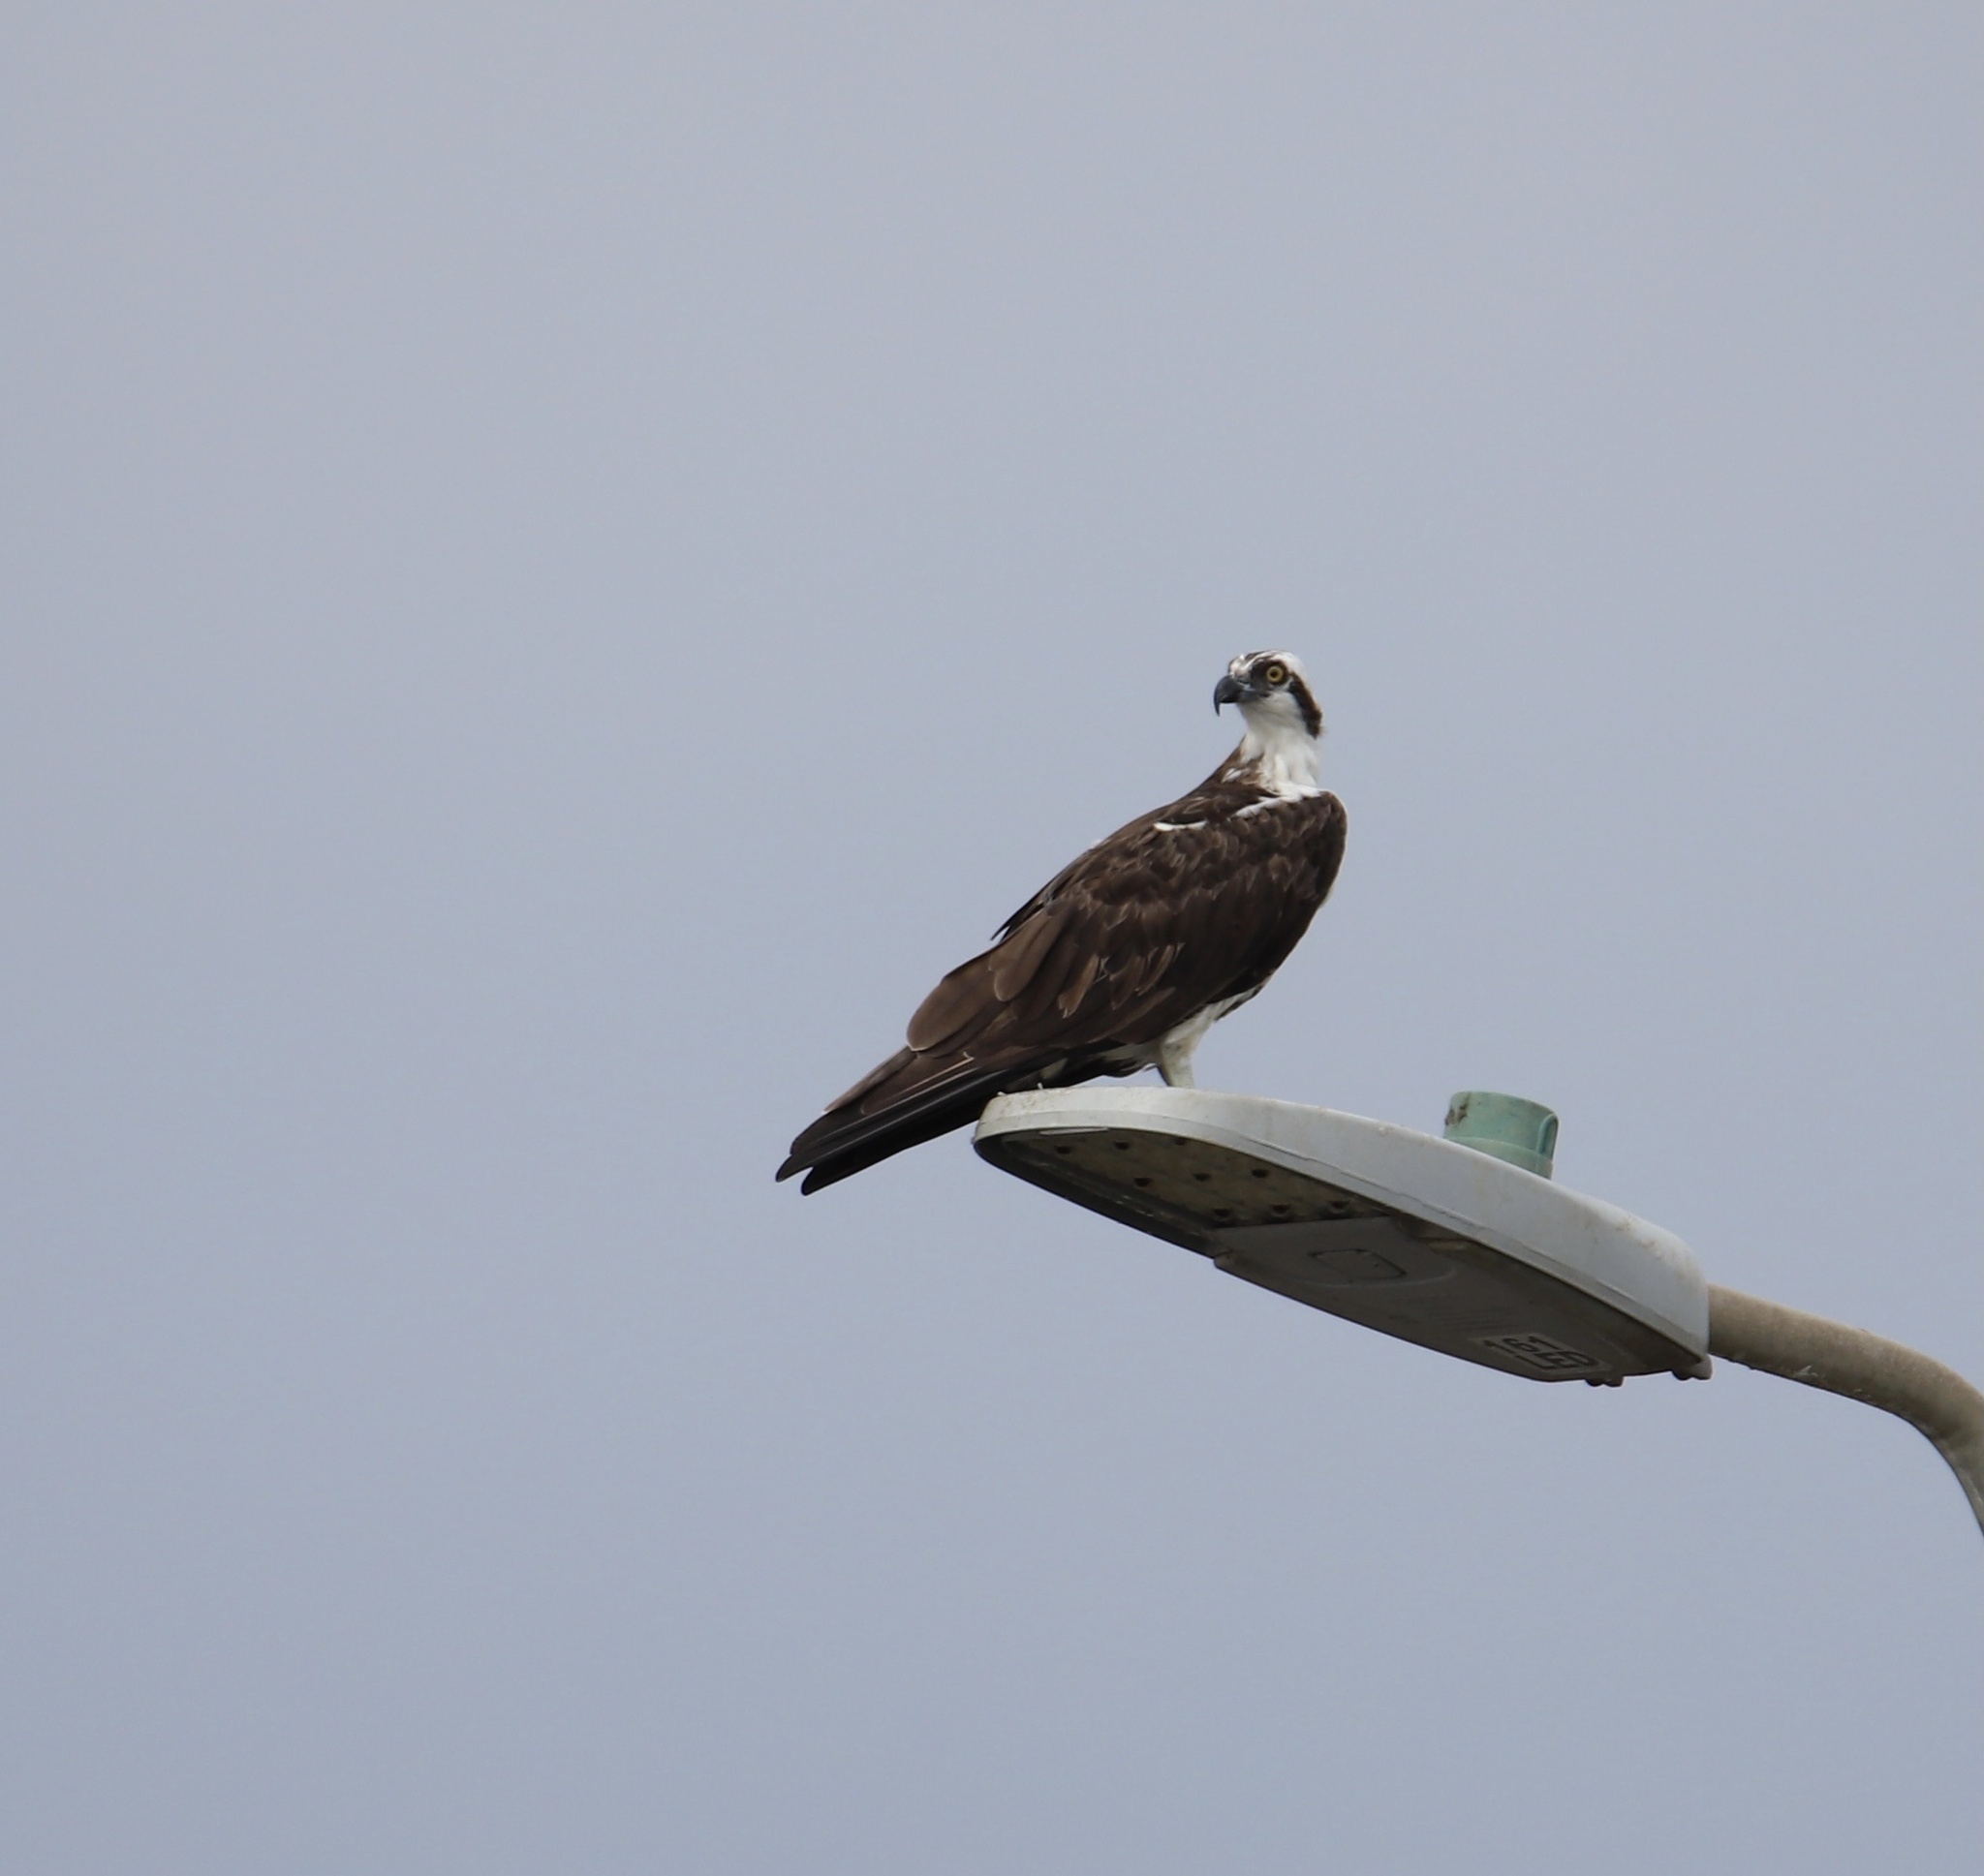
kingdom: Animalia
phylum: Chordata
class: Aves
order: Accipitriformes
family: Pandionidae
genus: Pandion
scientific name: Pandion haliaetus
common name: Osprey
